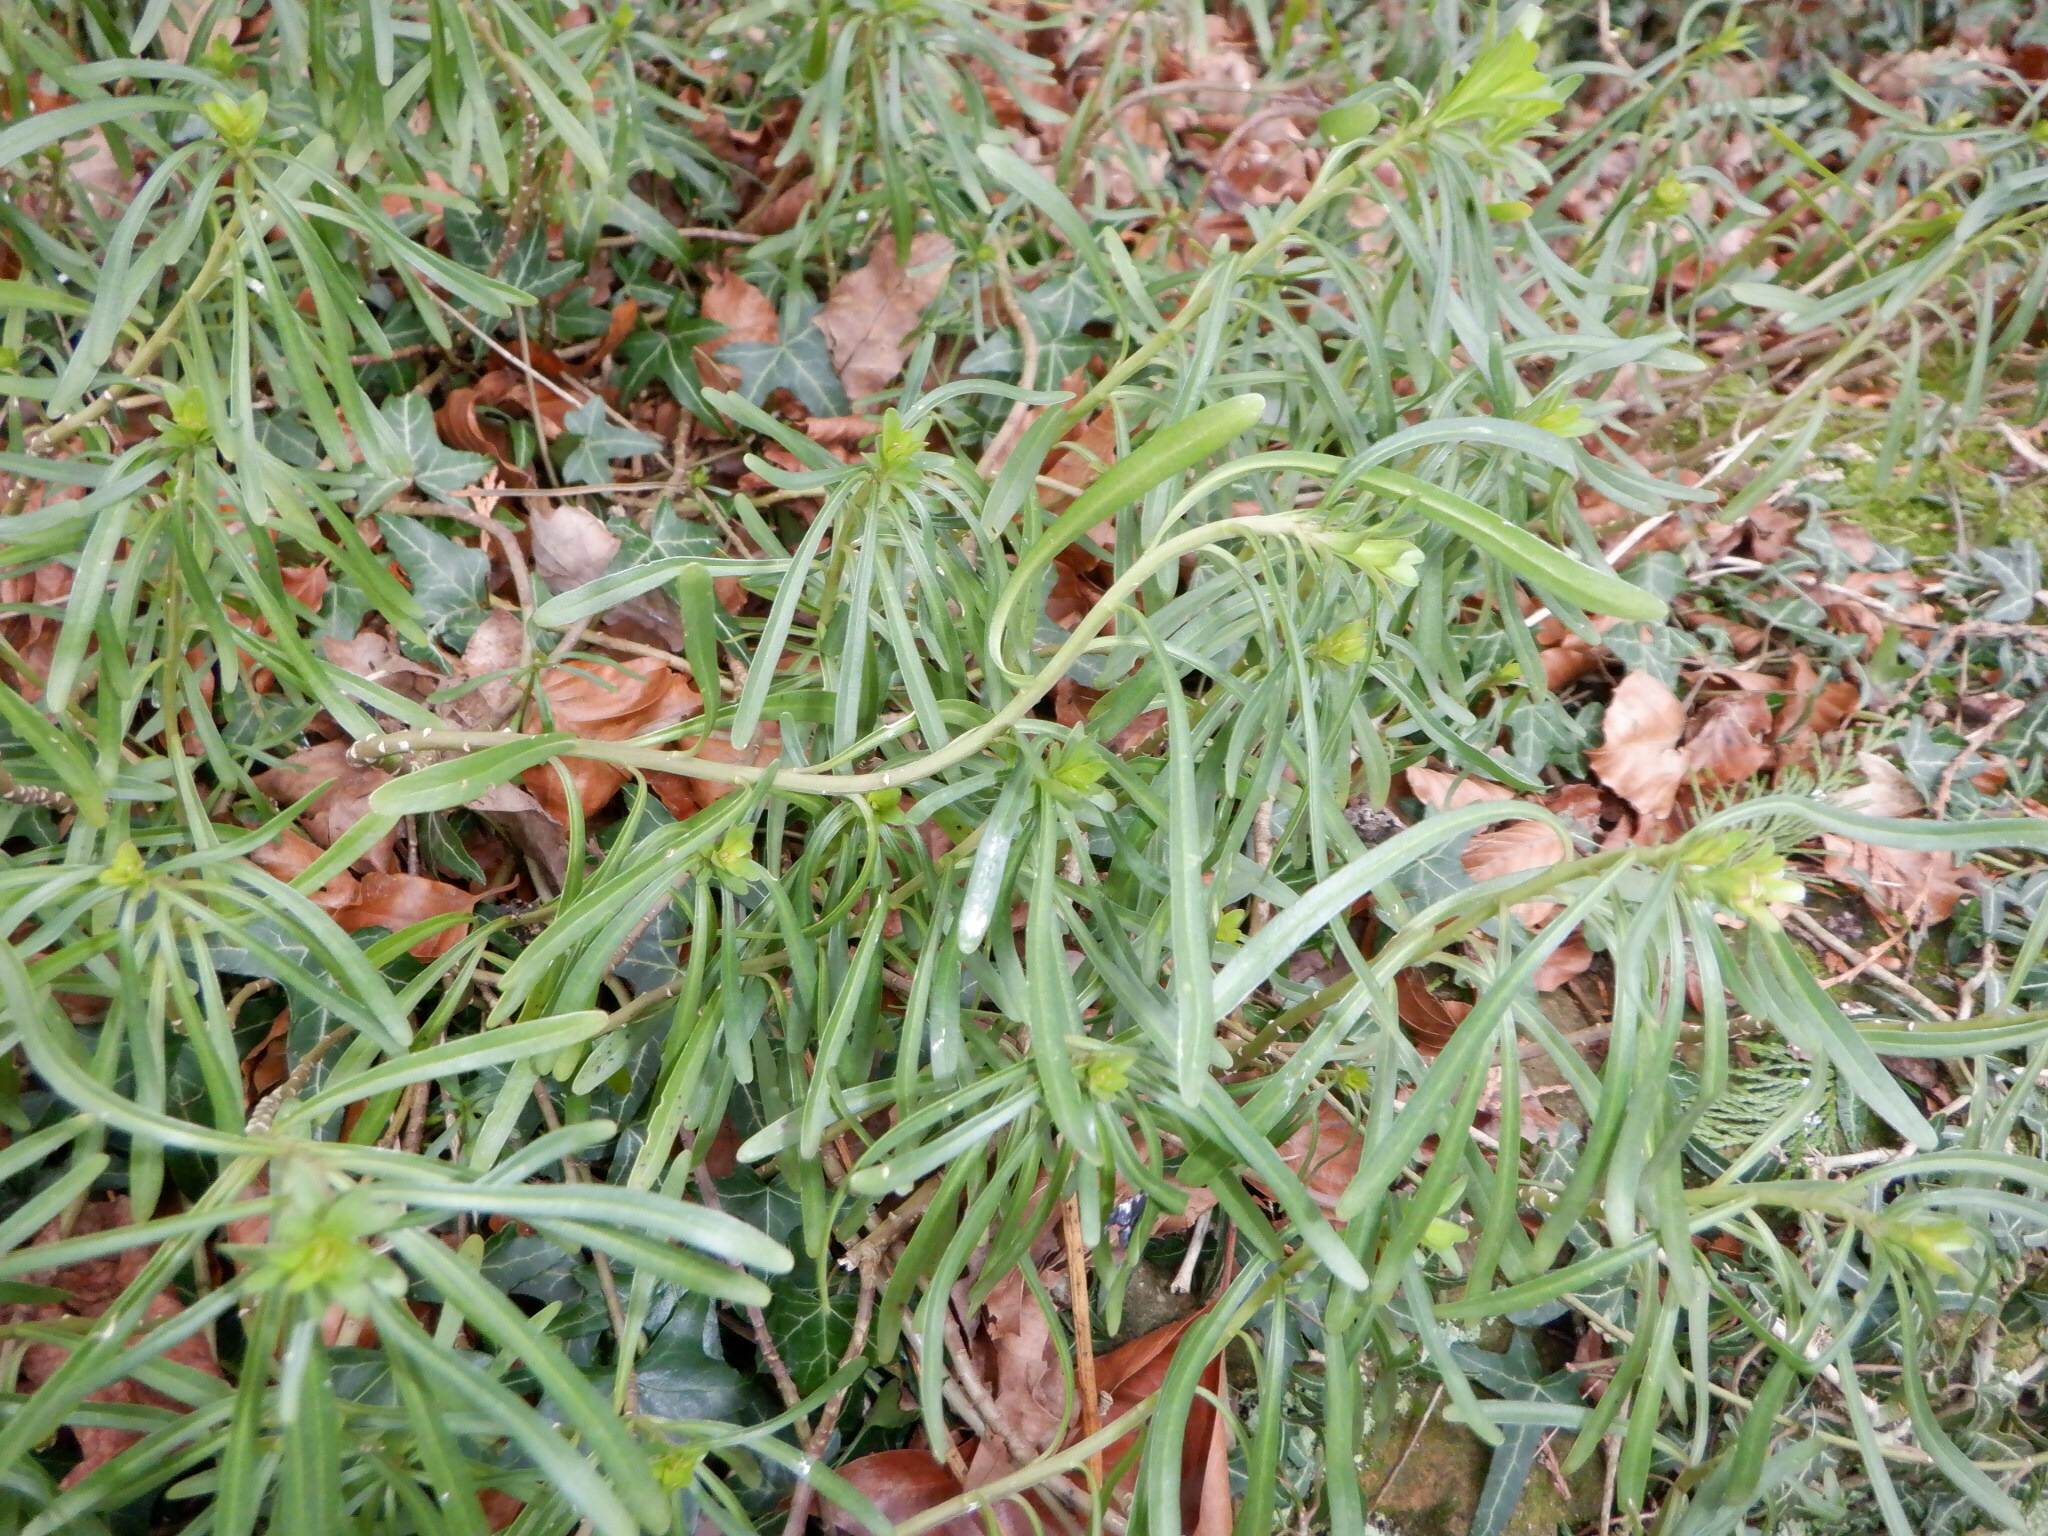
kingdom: Plantae
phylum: Tracheophyta
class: Magnoliopsida
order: Brassicales
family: Brassicaceae
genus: Iberis
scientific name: Iberis sempervirens
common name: Evergreen candytuft
